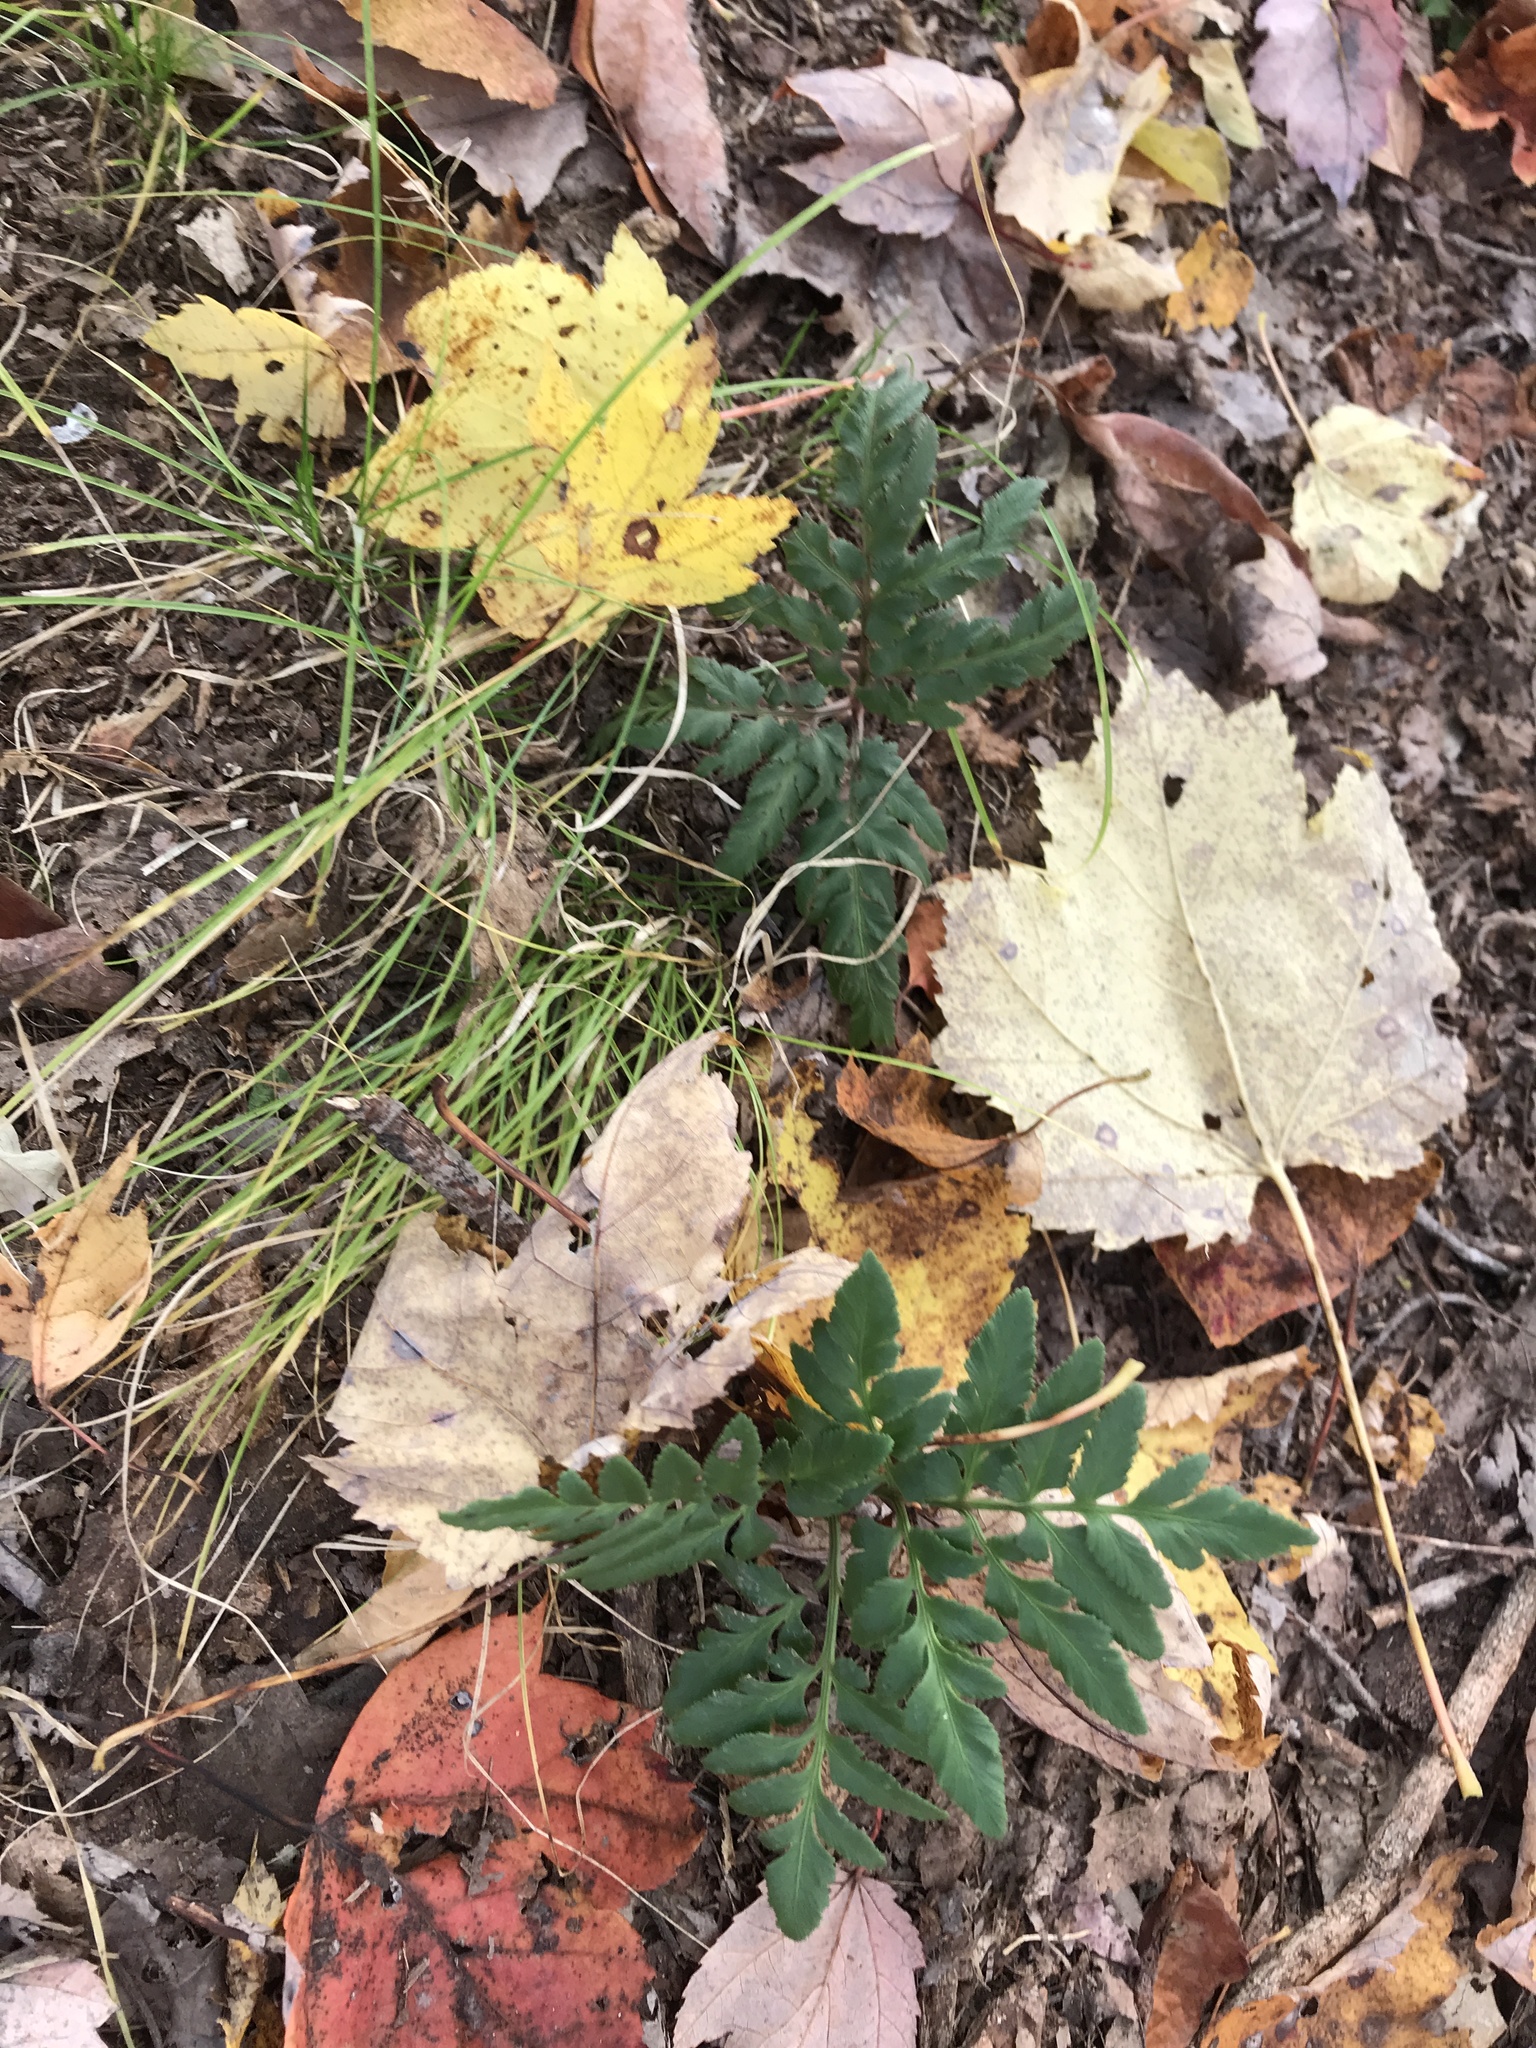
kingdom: Plantae
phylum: Tracheophyta
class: Polypodiopsida
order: Ophioglossales
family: Ophioglossaceae
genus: Sceptridium
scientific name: Sceptridium dissectum
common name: Cut-leaved grapefern
